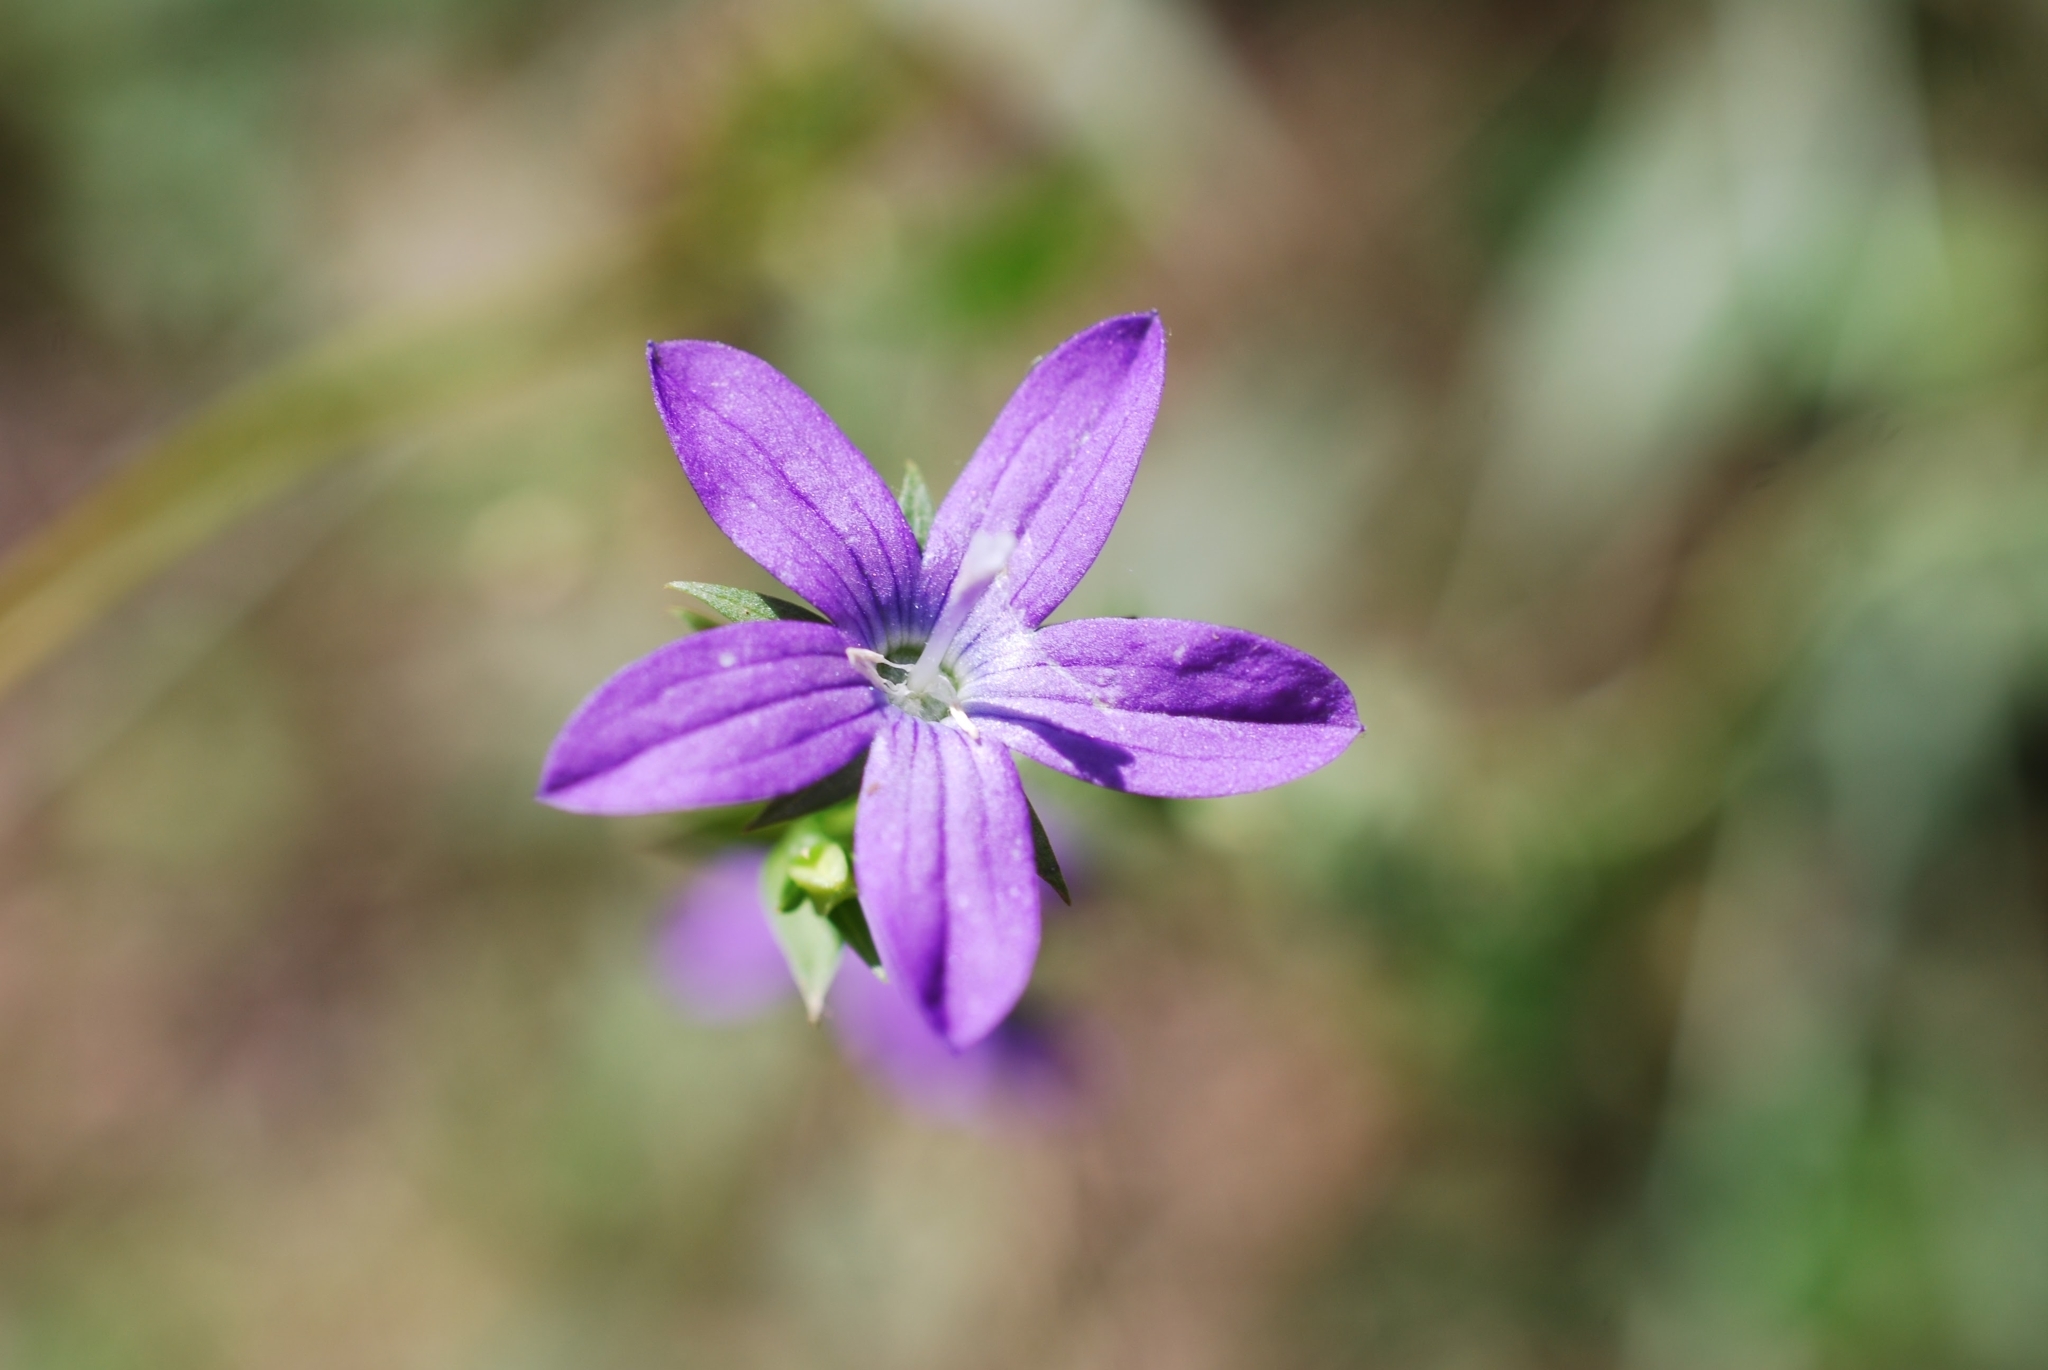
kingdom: Plantae
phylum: Tracheophyta
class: Magnoliopsida
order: Asterales
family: Campanulaceae
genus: Triodanis
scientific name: Triodanis biflora
